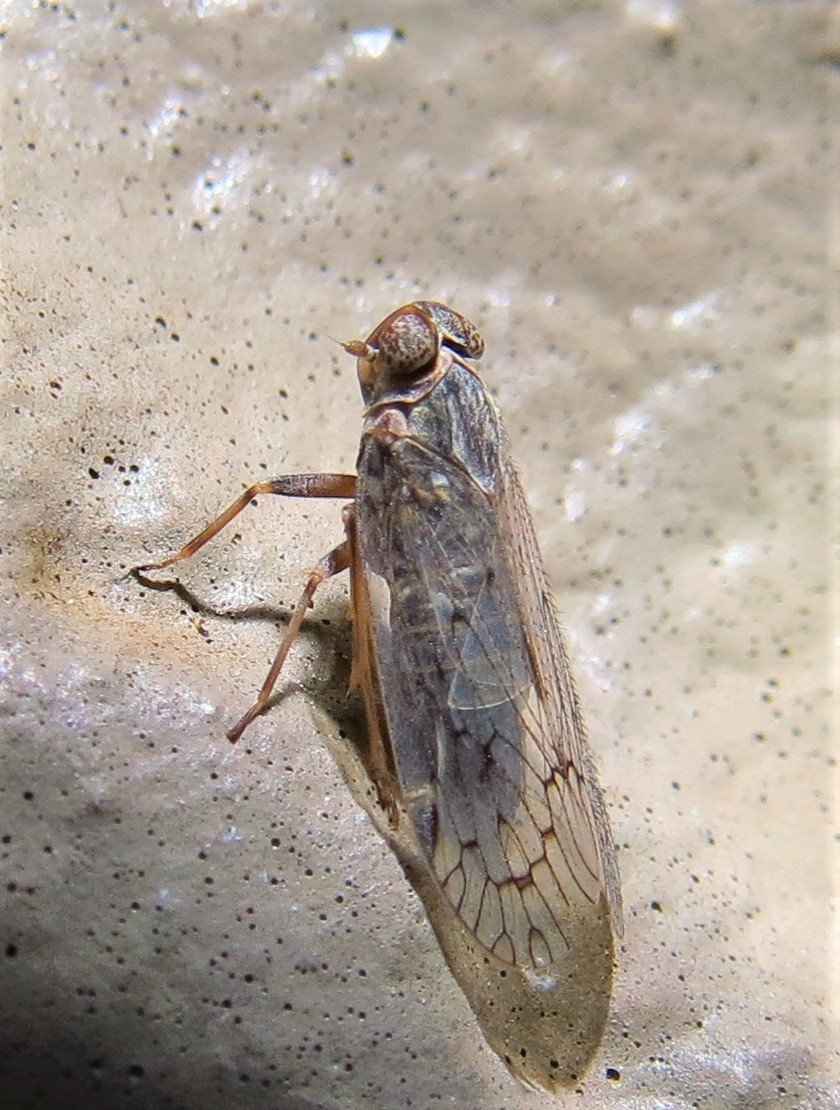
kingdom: Animalia
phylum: Arthropoda
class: Insecta
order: Hemiptera
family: Cixiidae
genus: Melanoliarus
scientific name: Melanoliarus aridus
